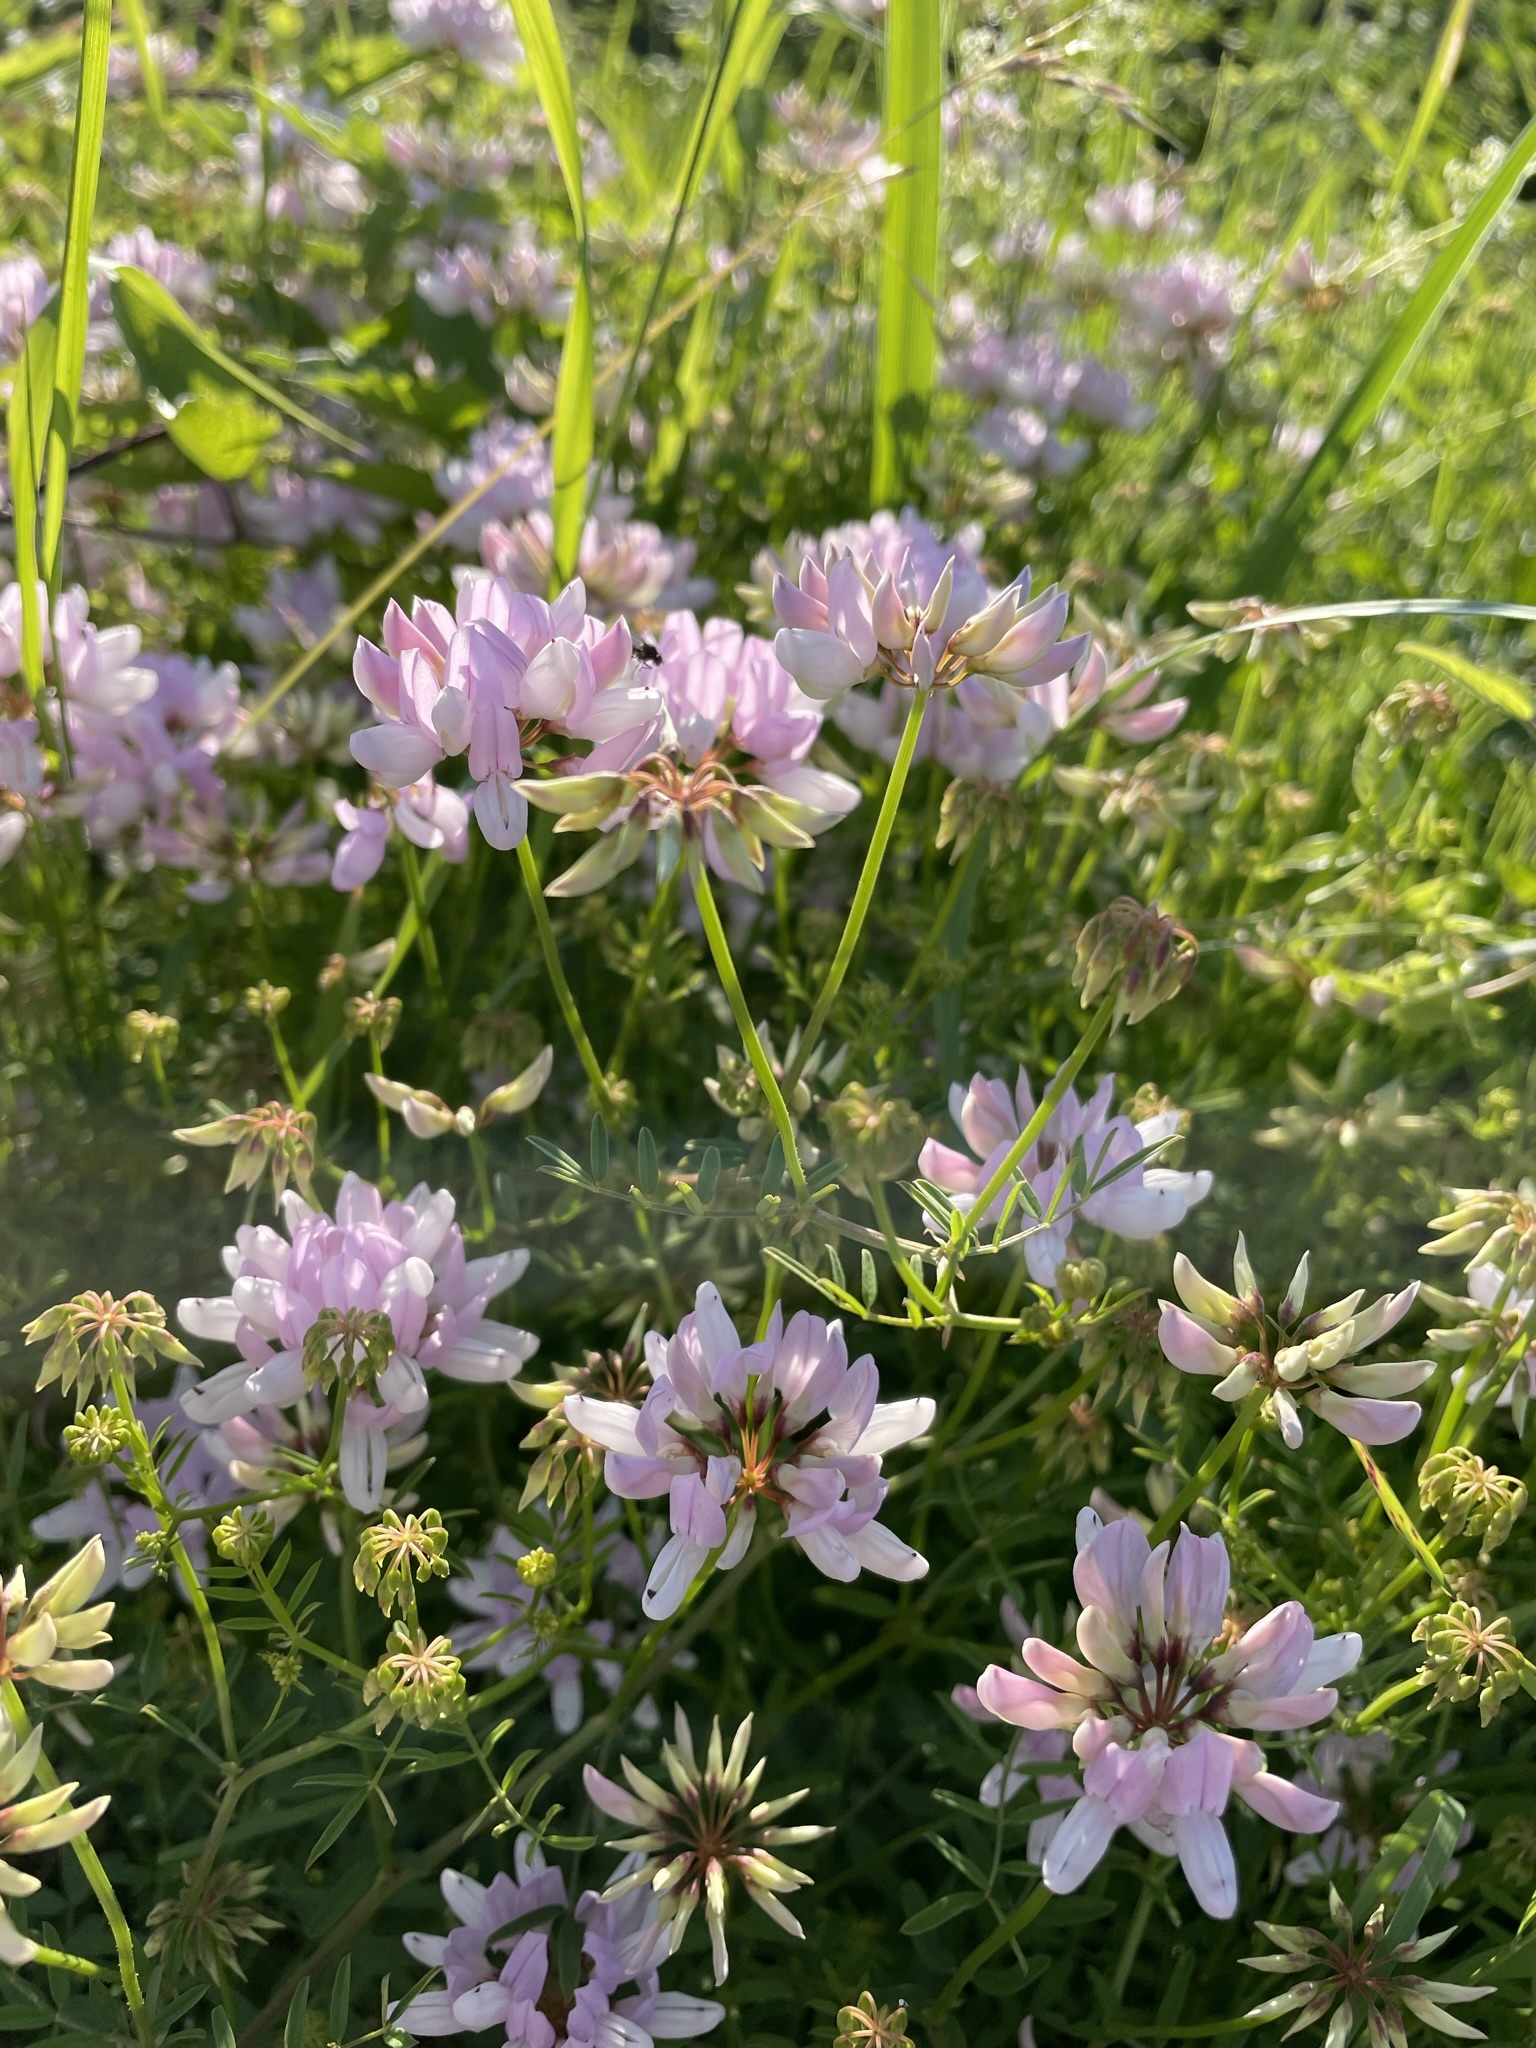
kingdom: Plantae
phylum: Tracheophyta
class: Magnoliopsida
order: Fabales
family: Fabaceae
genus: Coronilla
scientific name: Coronilla varia
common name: Crownvetch
